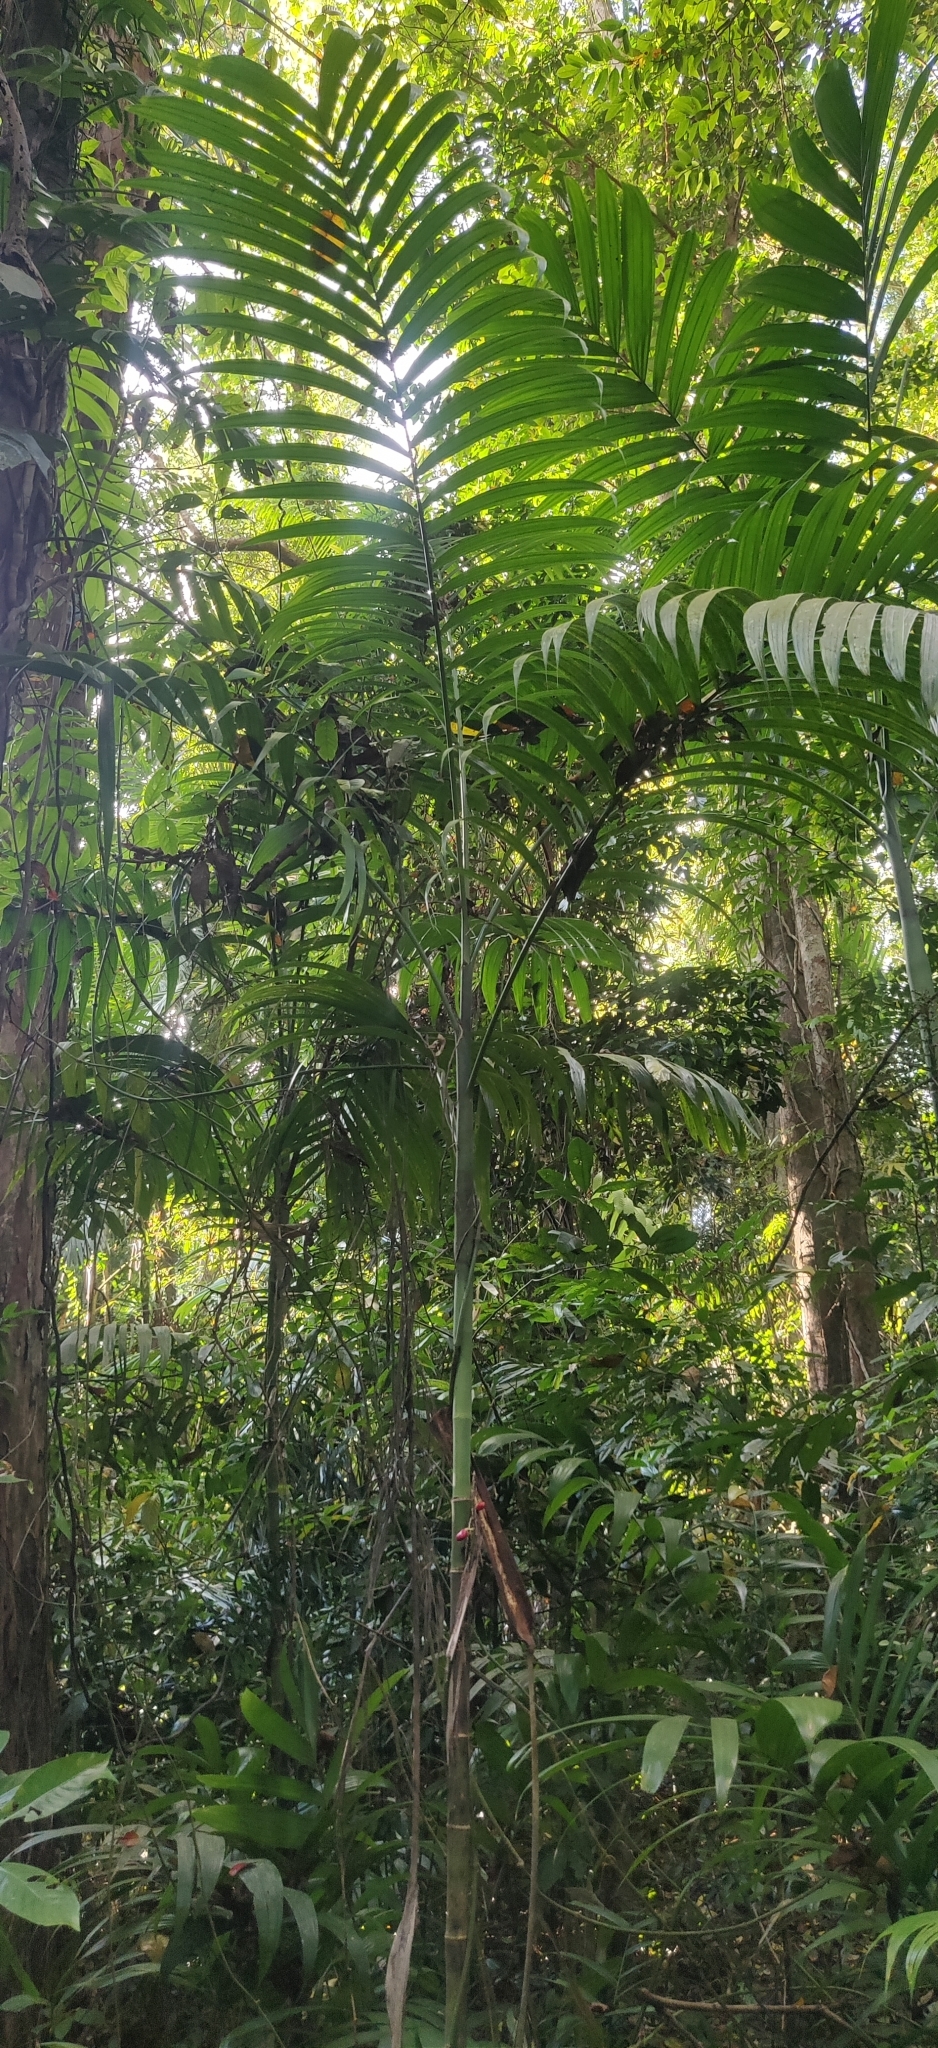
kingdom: Plantae
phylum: Tracheophyta
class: Liliopsida
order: Arecales
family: Arecaceae
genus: Areca
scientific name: Areca triandra
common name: Australian areca palm
